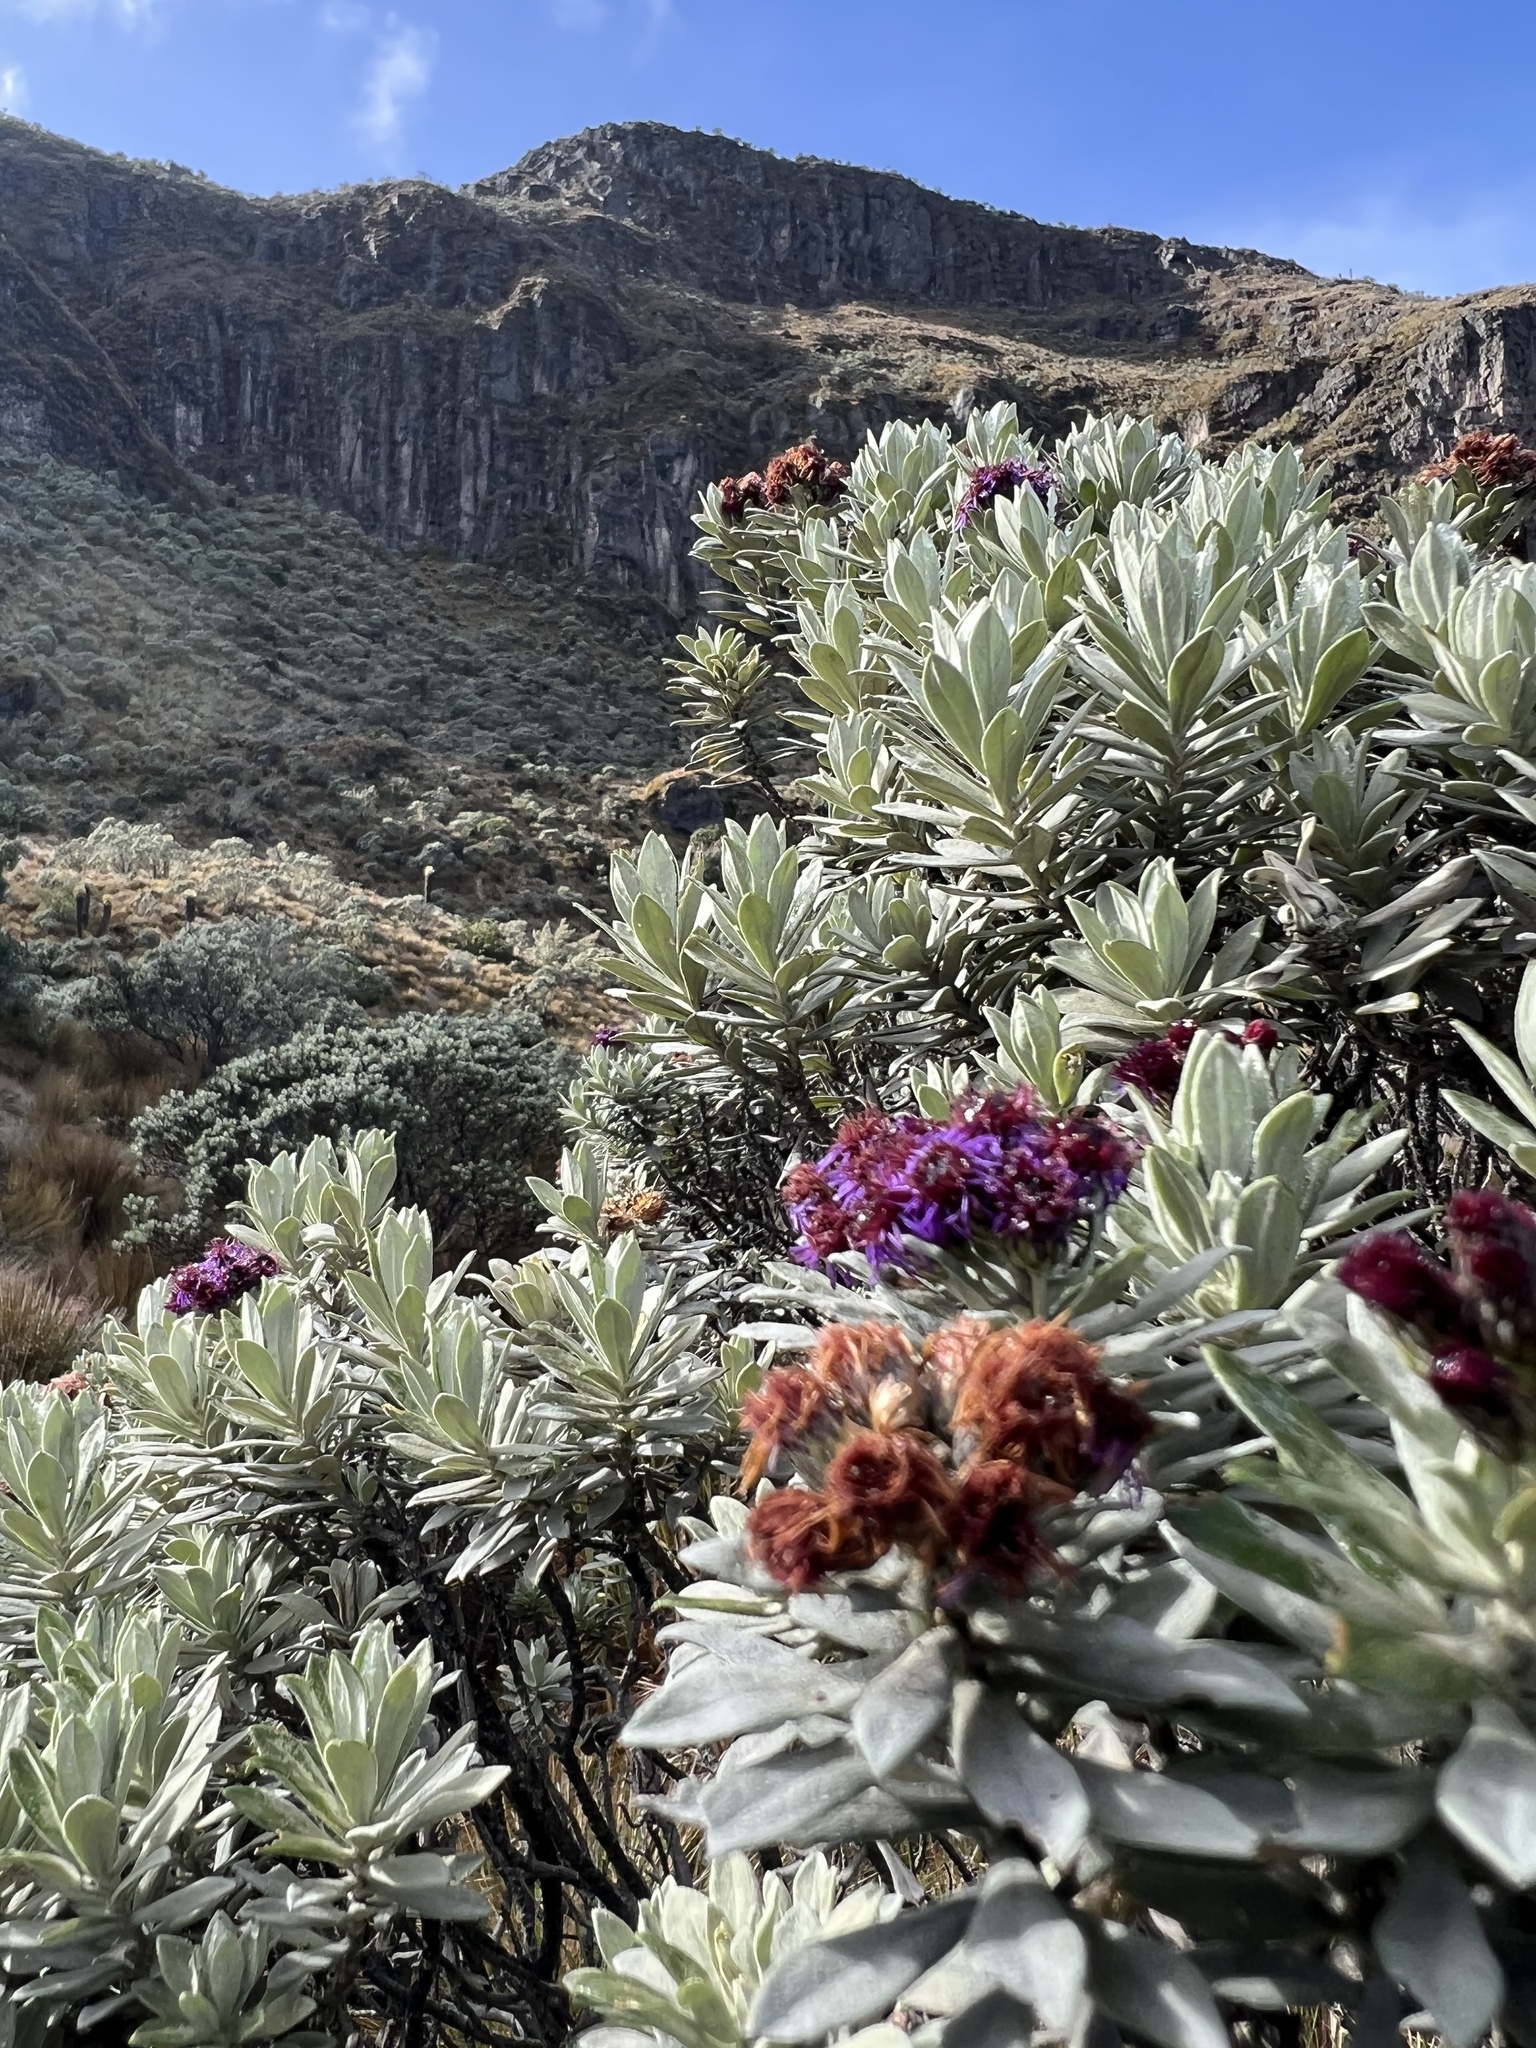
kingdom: Plantae
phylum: Tracheophyta
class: Magnoliopsida
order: Asterales
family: Asteraceae
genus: Linochilus
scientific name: Linochilus schultzii
